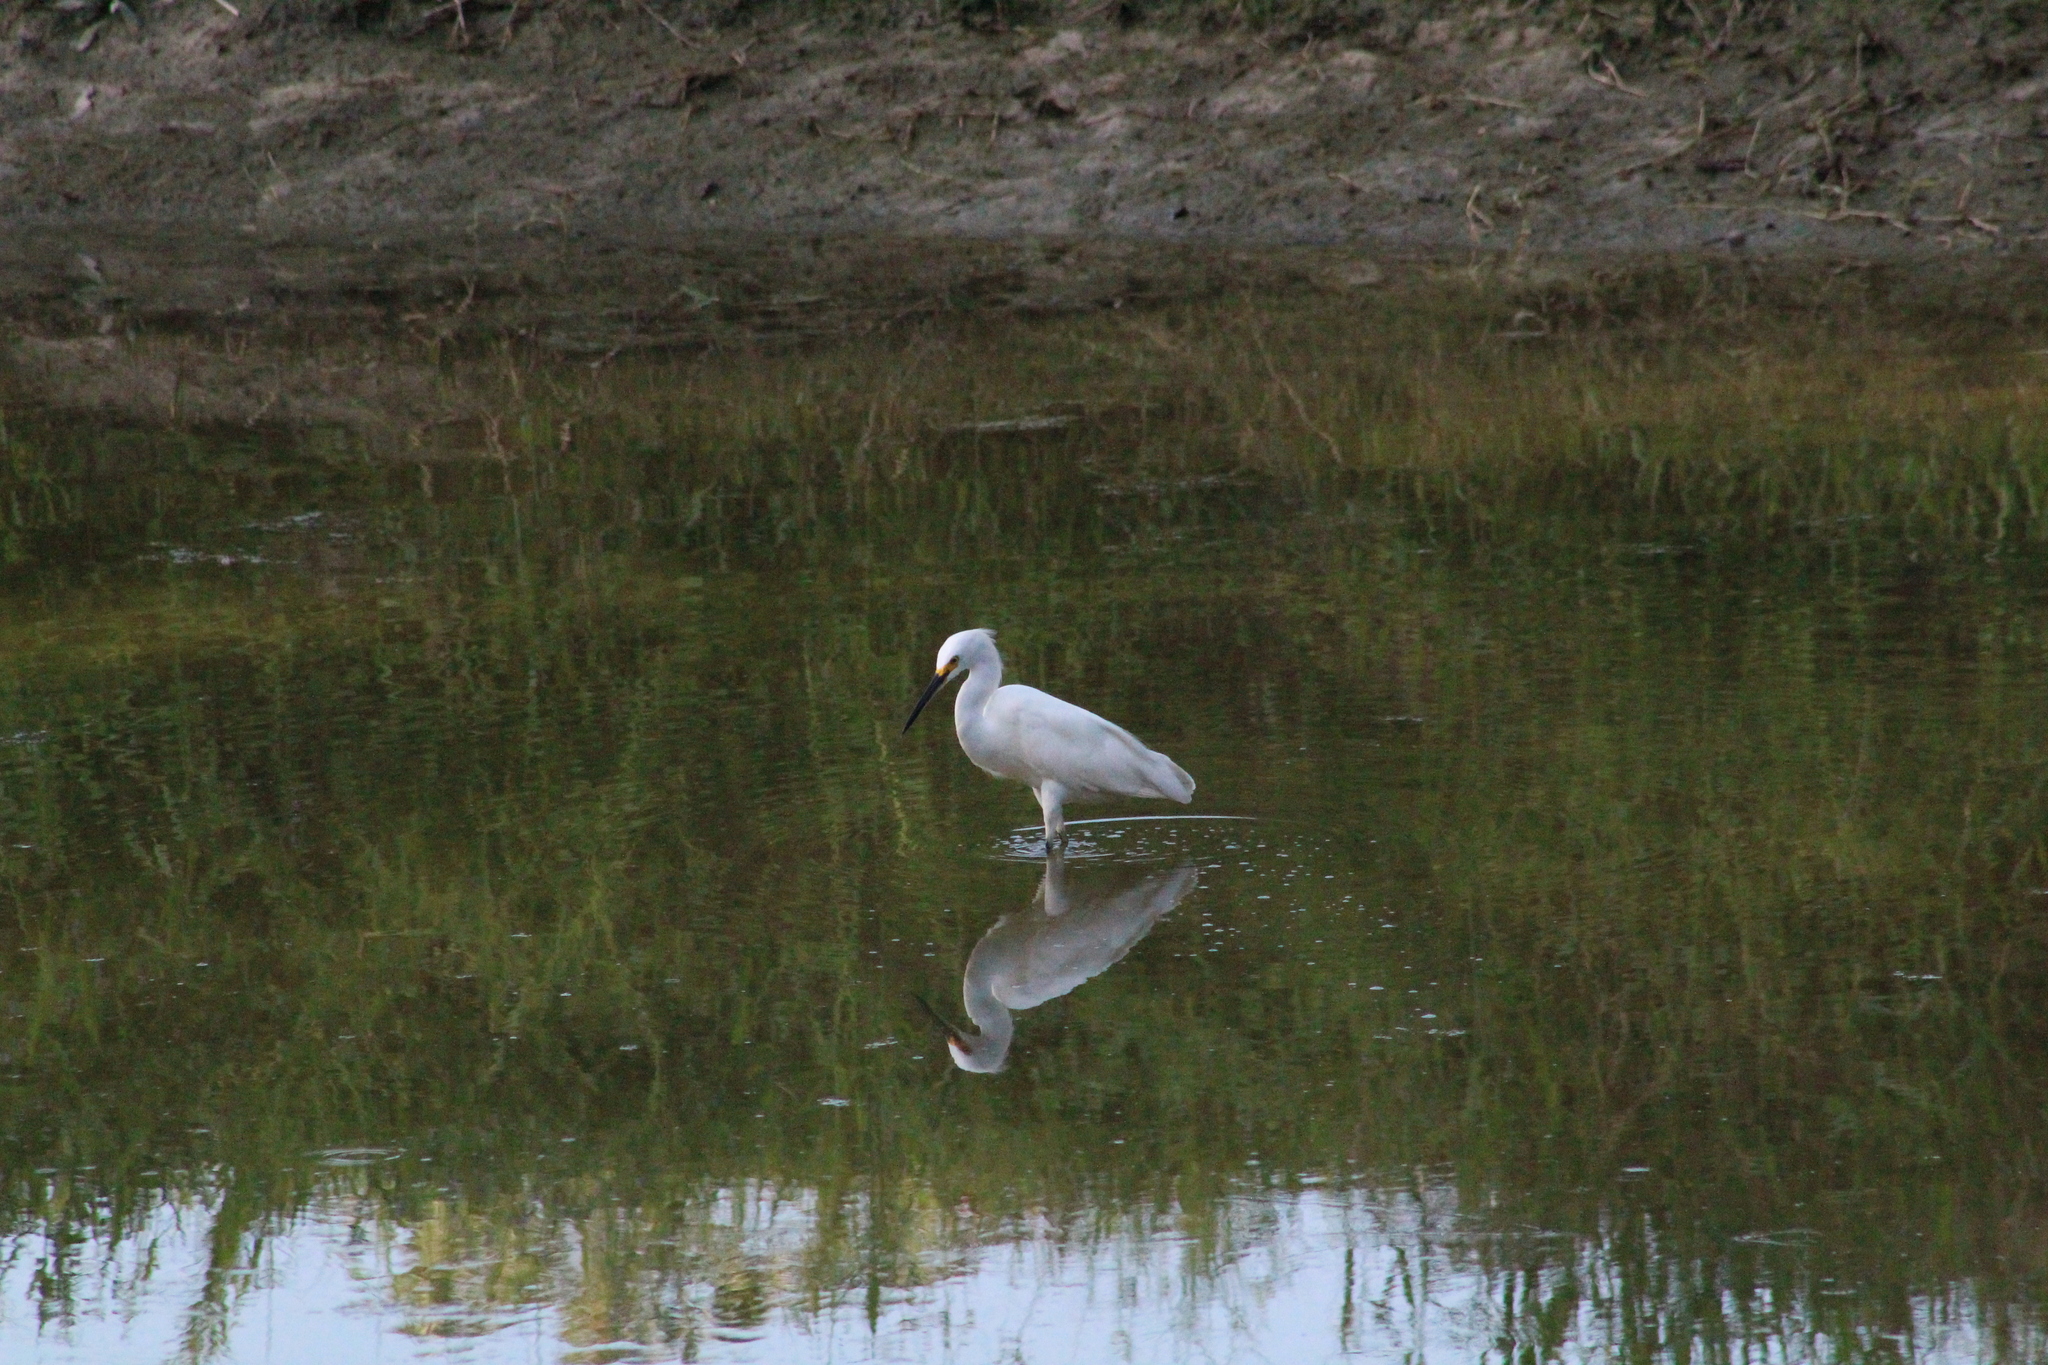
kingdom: Animalia
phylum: Chordata
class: Aves
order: Pelecaniformes
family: Ardeidae
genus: Egretta
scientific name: Egretta thula
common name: Snowy egret
